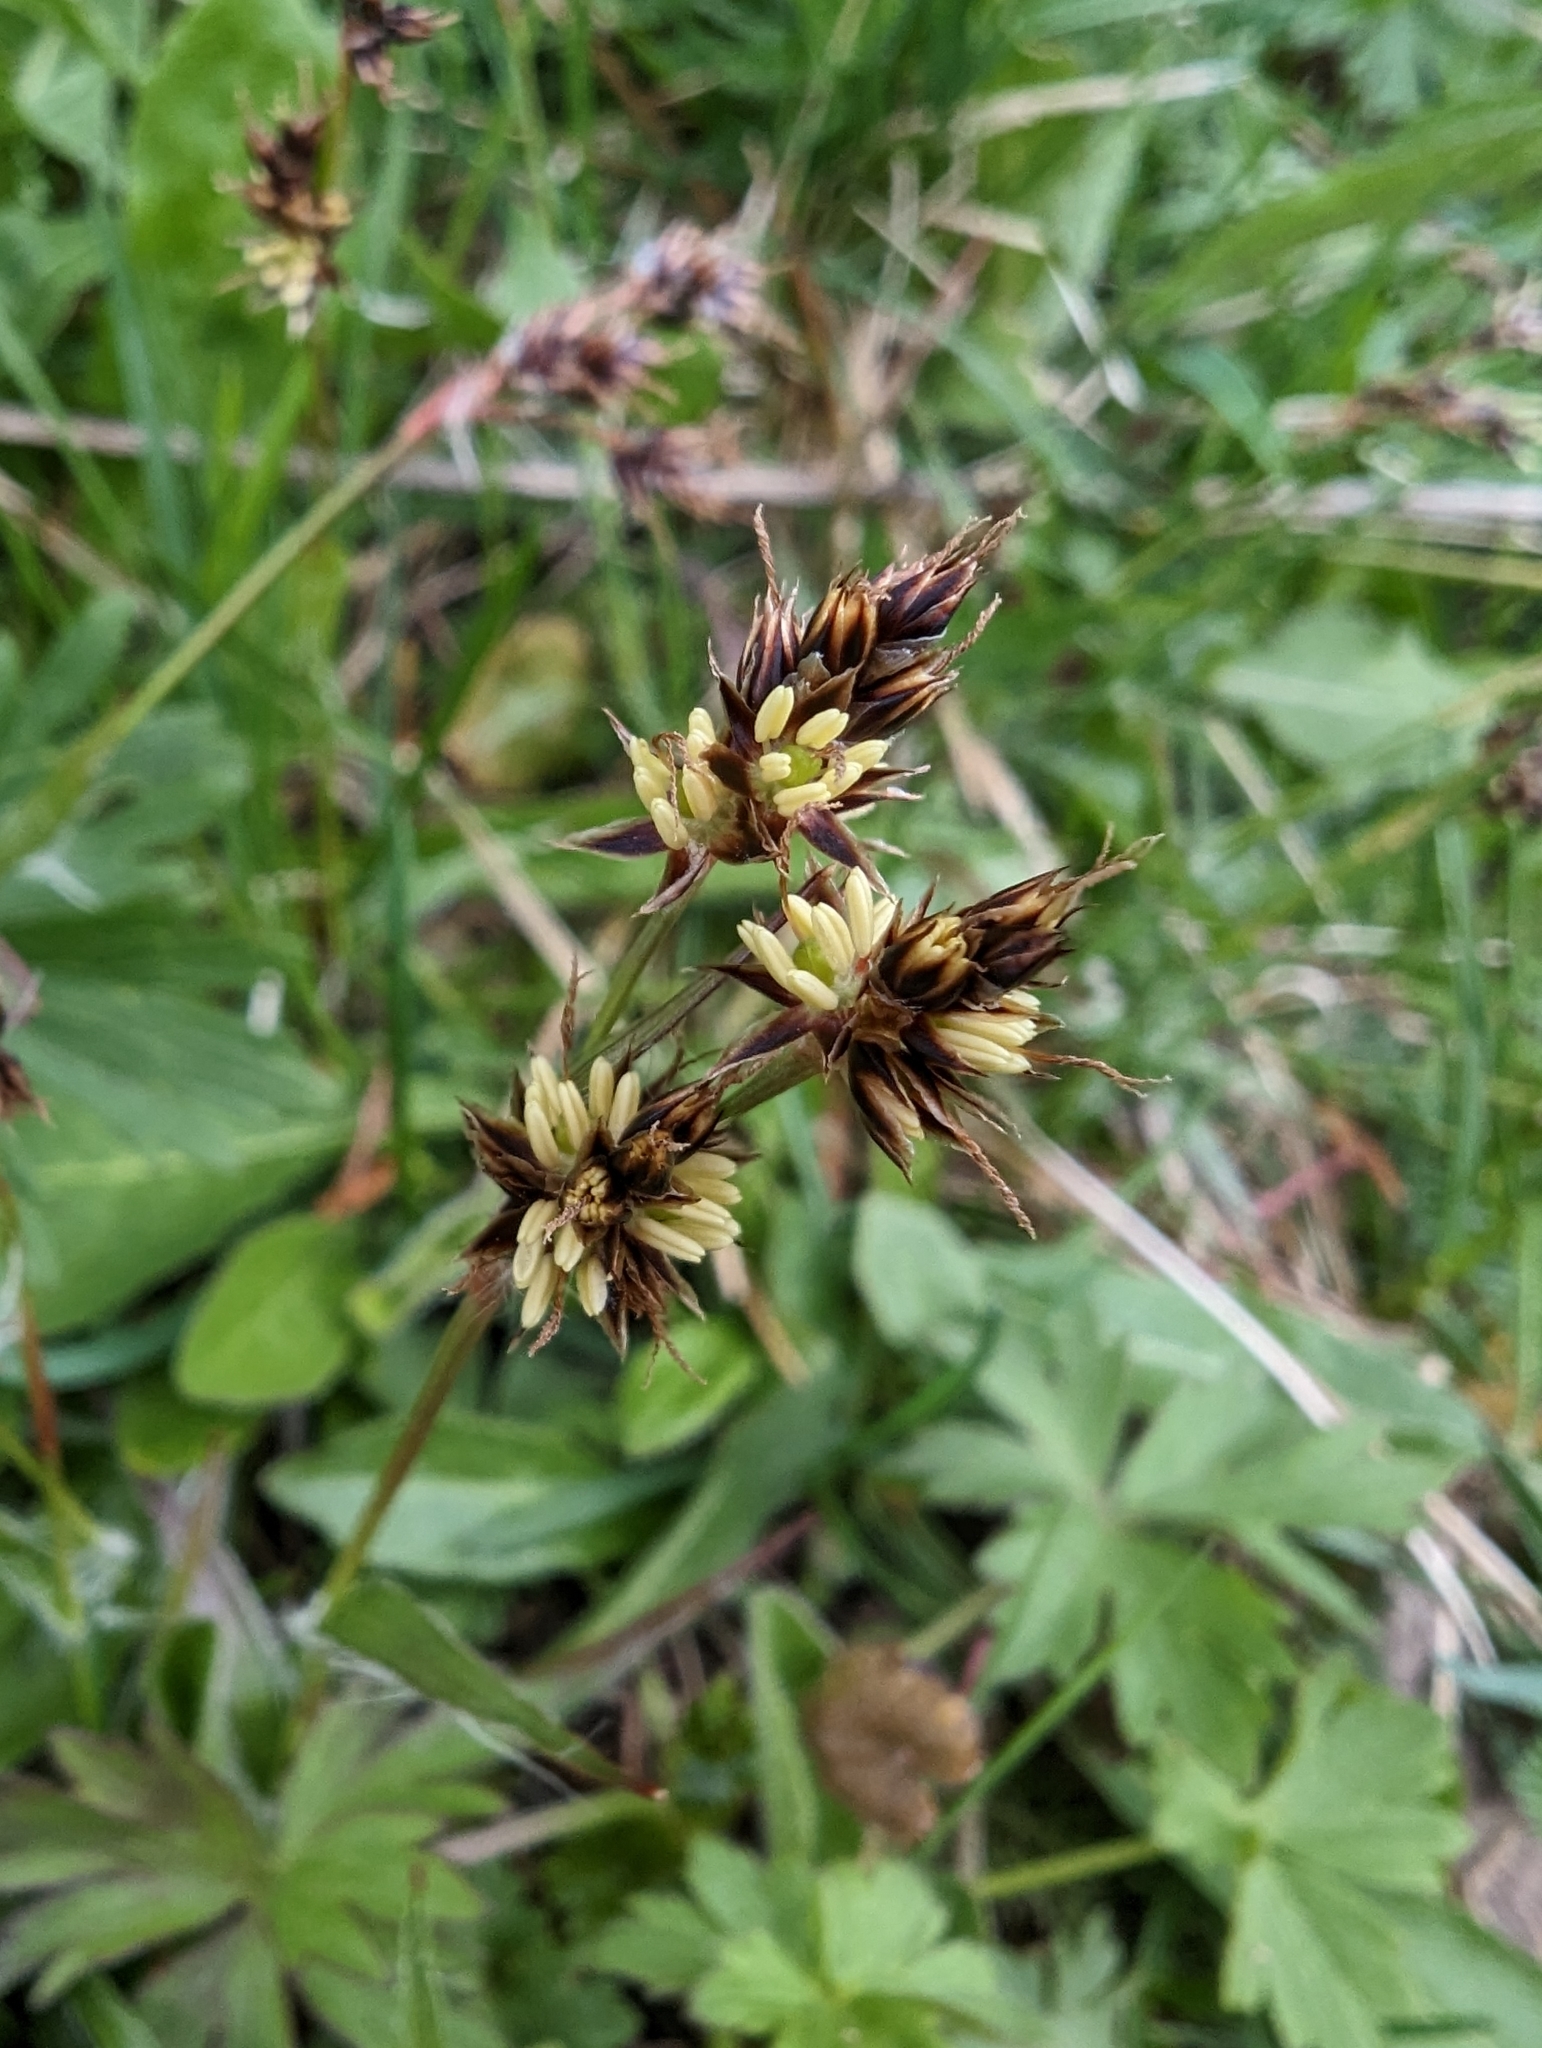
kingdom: Plantae
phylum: Tracheophyta
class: Liliopsida
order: Poales
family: Juncaceae
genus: Luzula
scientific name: Luzula campestris
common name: Field wood-rush
